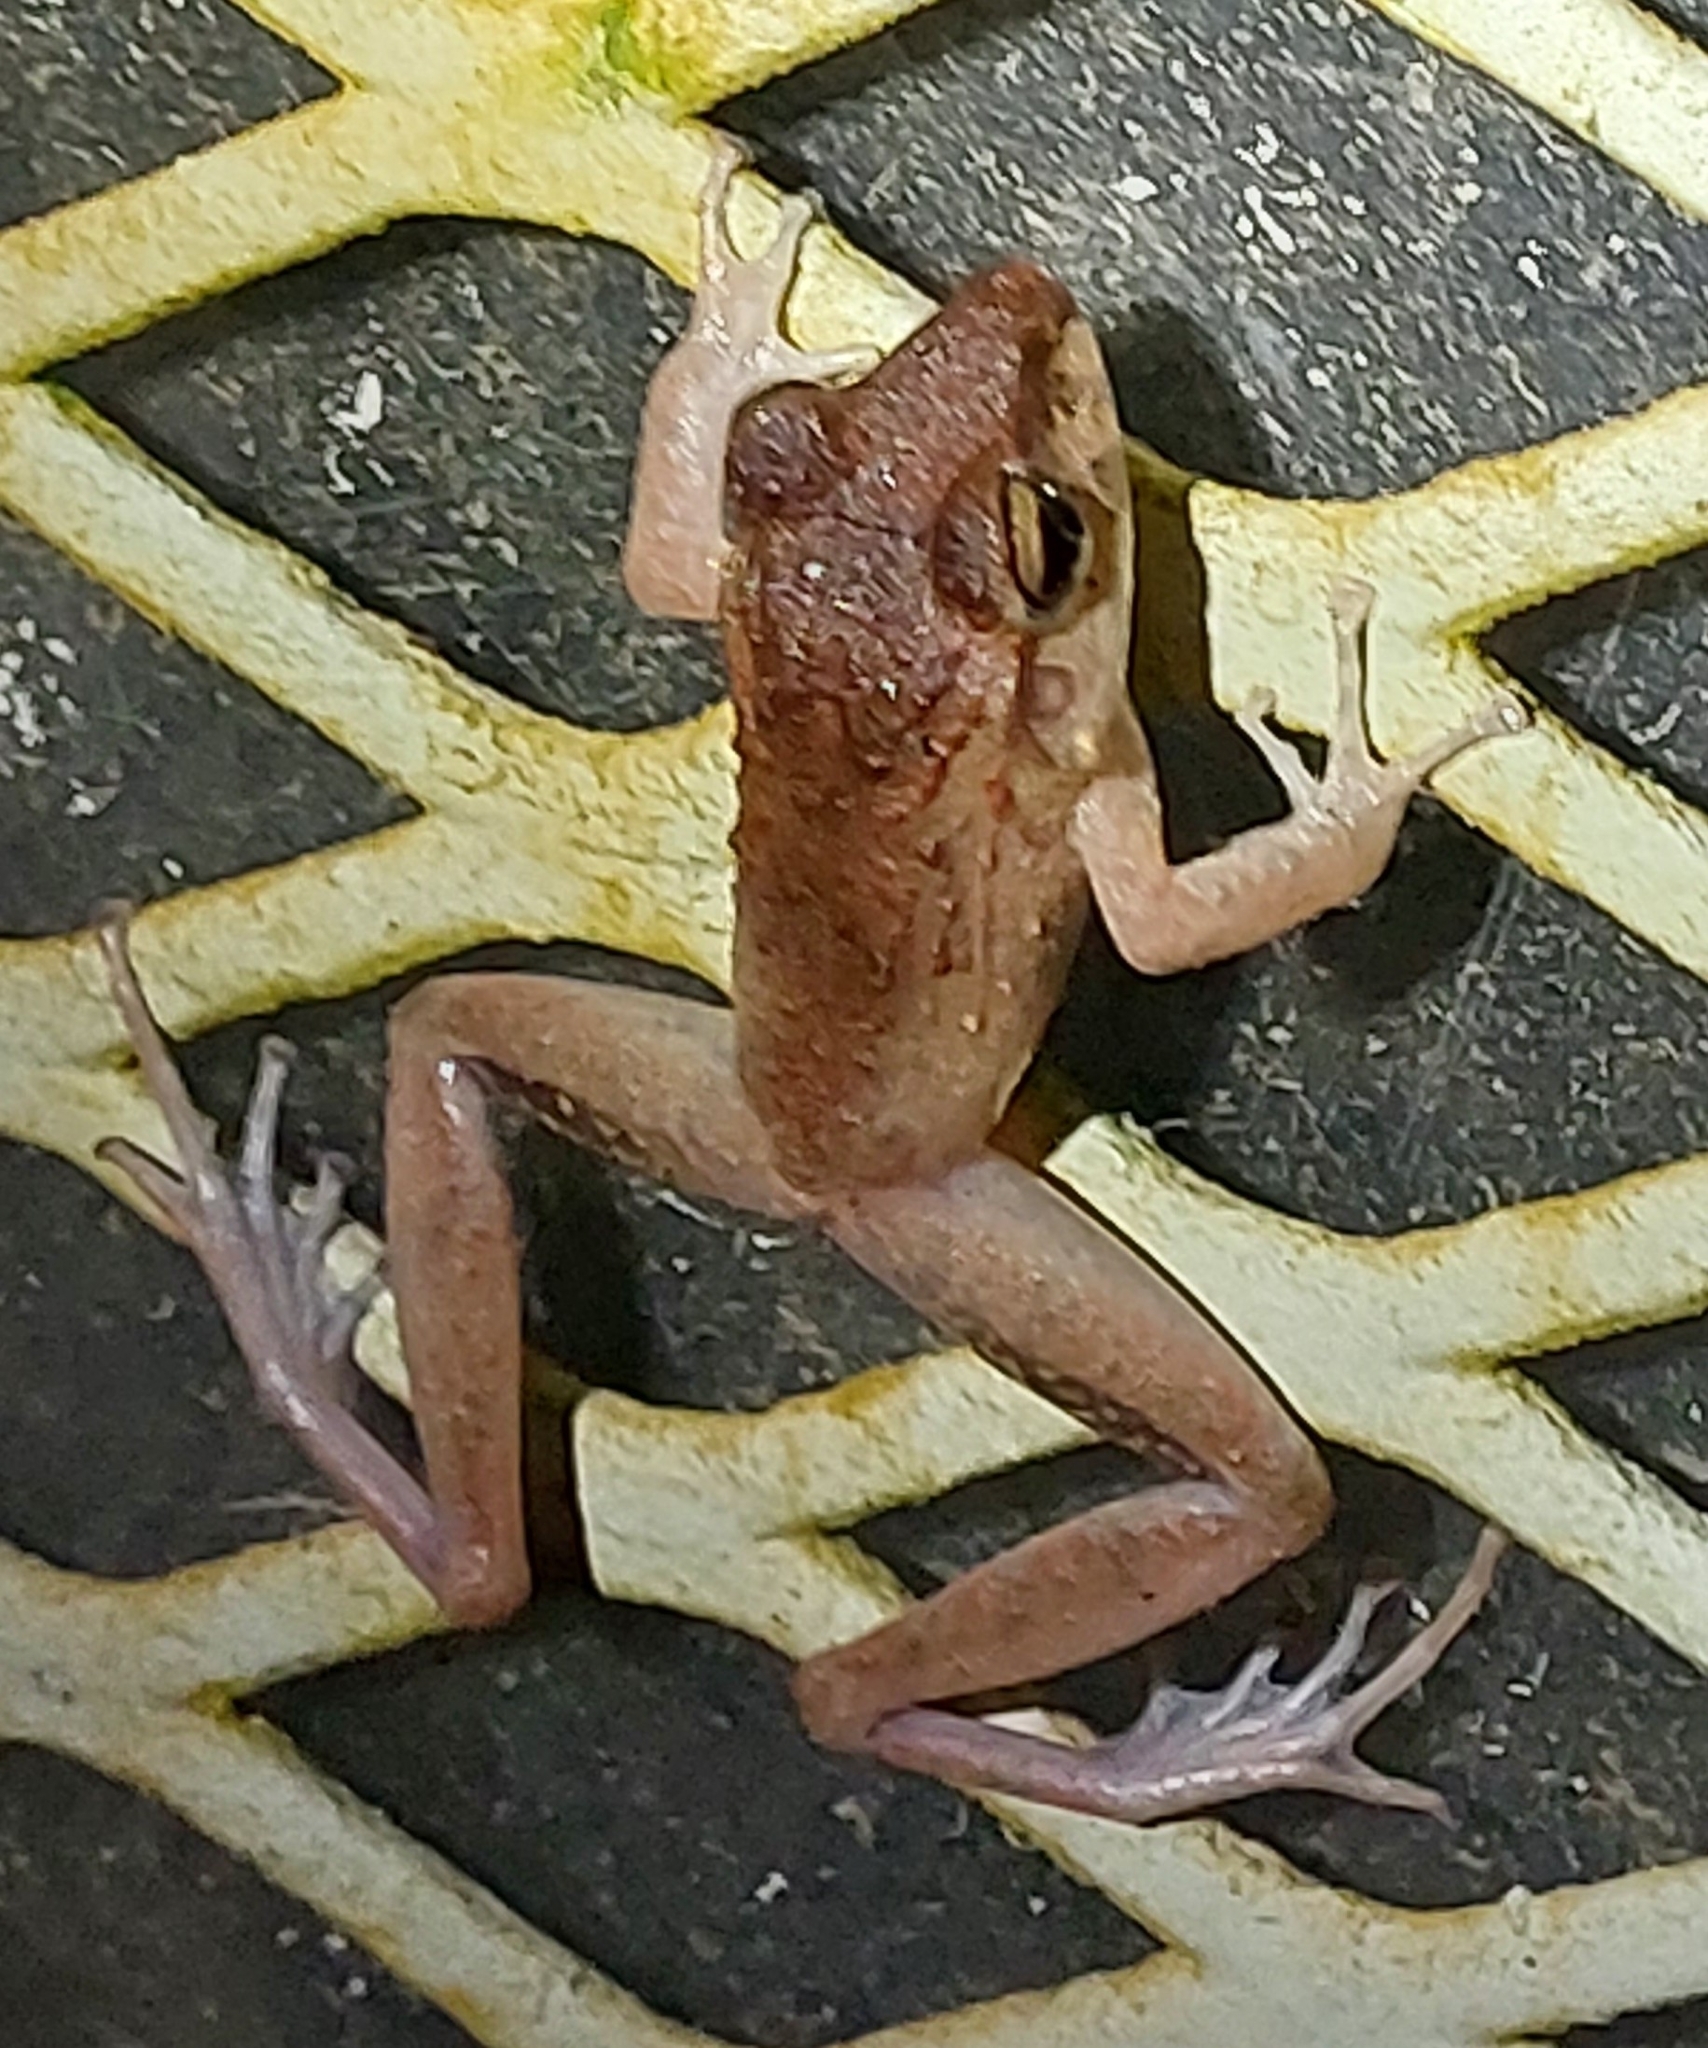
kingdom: Animalia
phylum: Chordata
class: Amphibia
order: Anura
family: Craugastoridae
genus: Craugastor
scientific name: Craugastor fitzingeri
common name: Fitzinger's robber frog
